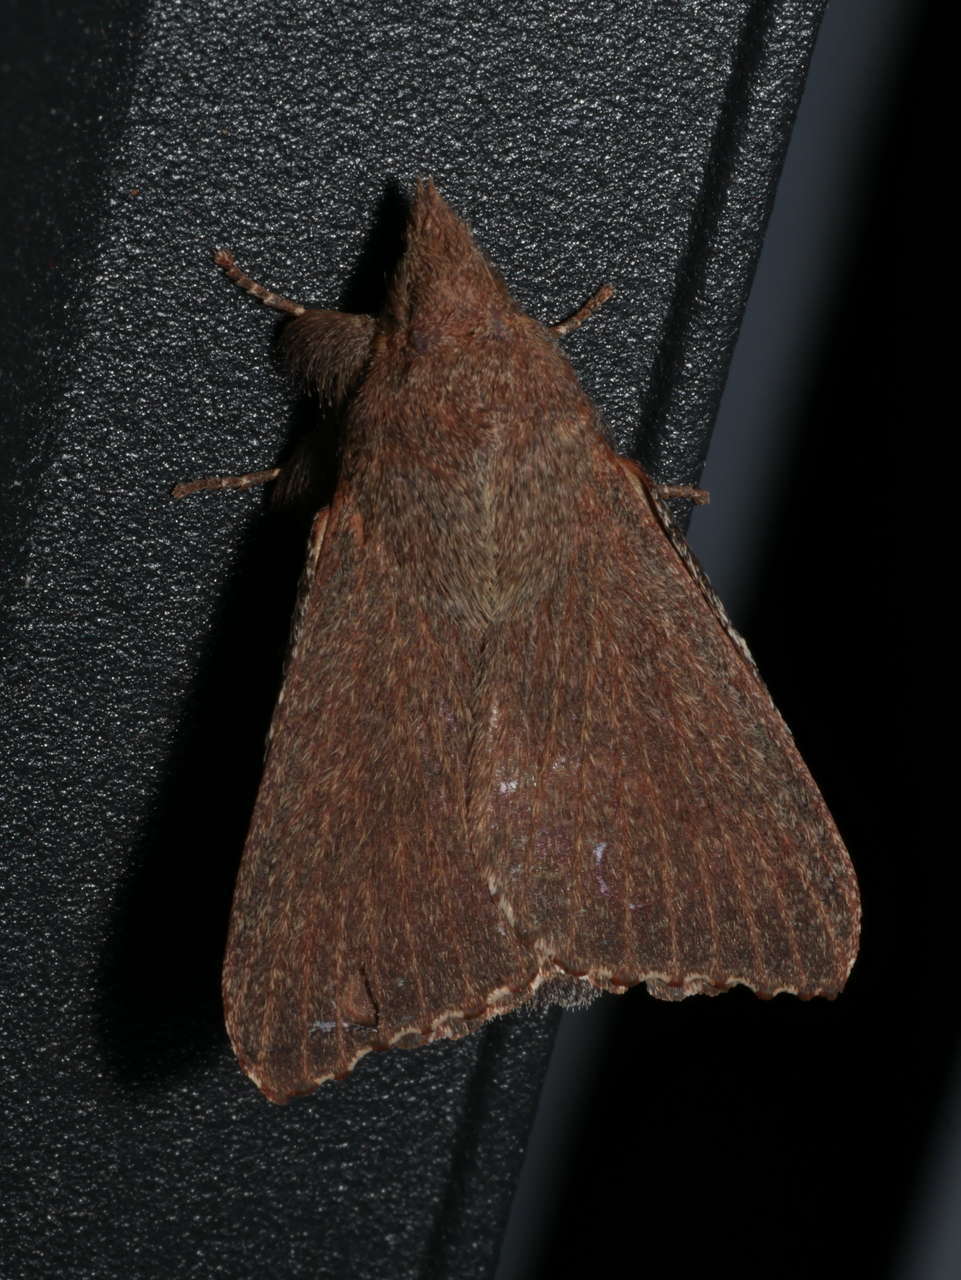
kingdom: Animalia
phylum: Arthropoda
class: Insecta
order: Lepidoptera
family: Lasiocampidae
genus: Pararguda
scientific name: Pararguda rufescens
